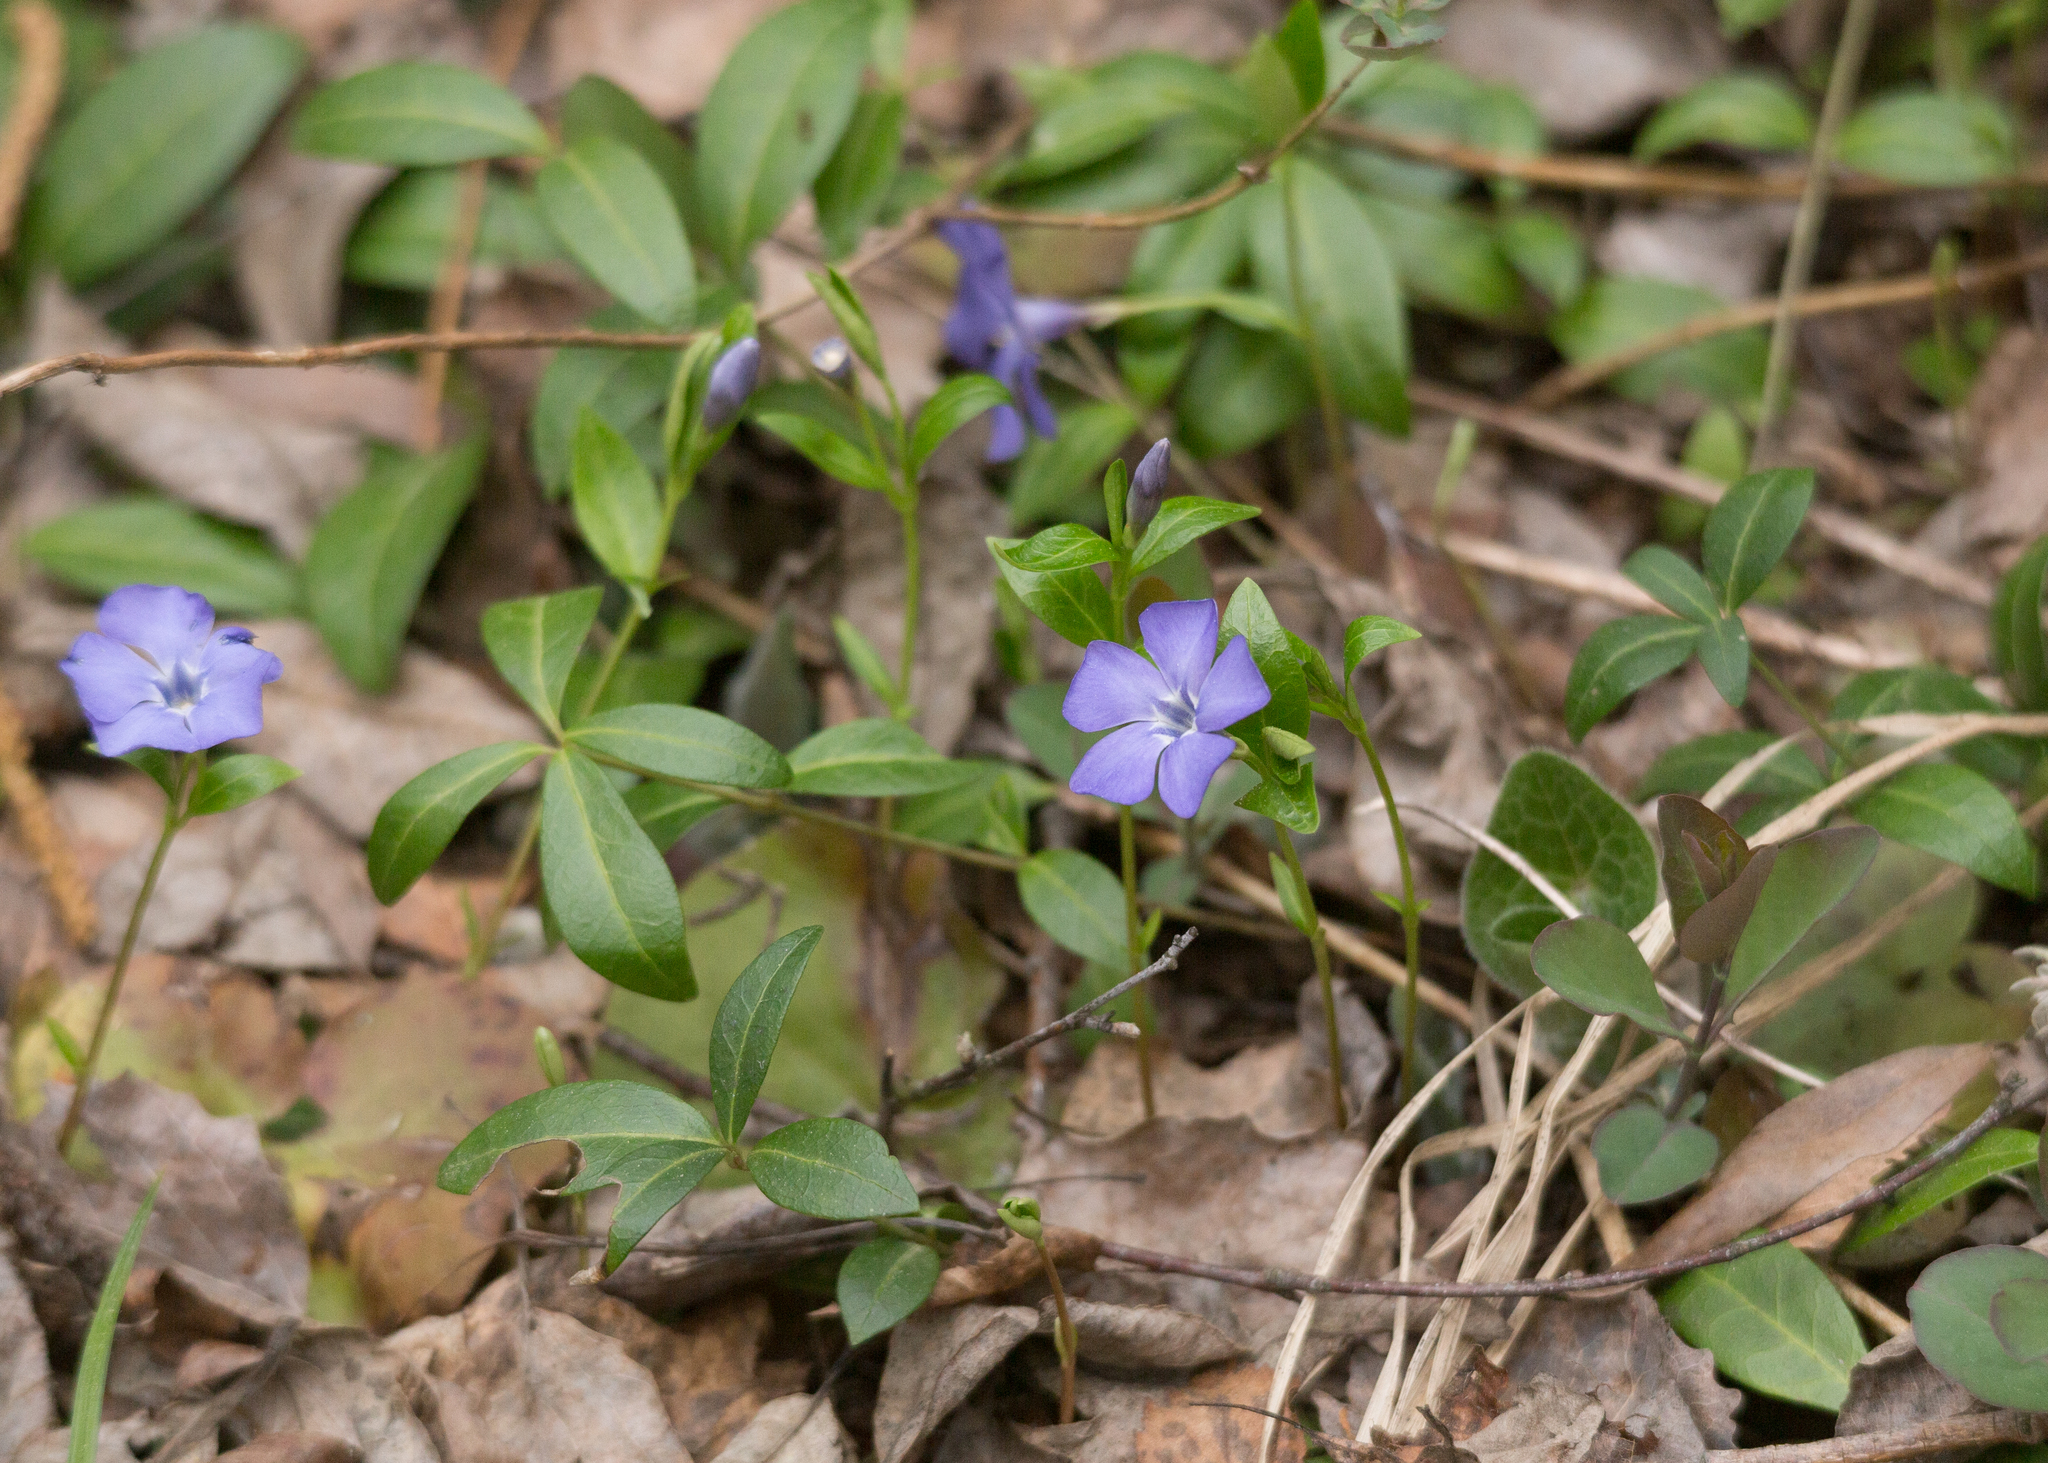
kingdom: Plantae
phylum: Tracheophyta
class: Magnoliopsida
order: Gentianales
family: Apocynaceae
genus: Vinca
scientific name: Vinca minor
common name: Lesser periwinkle
